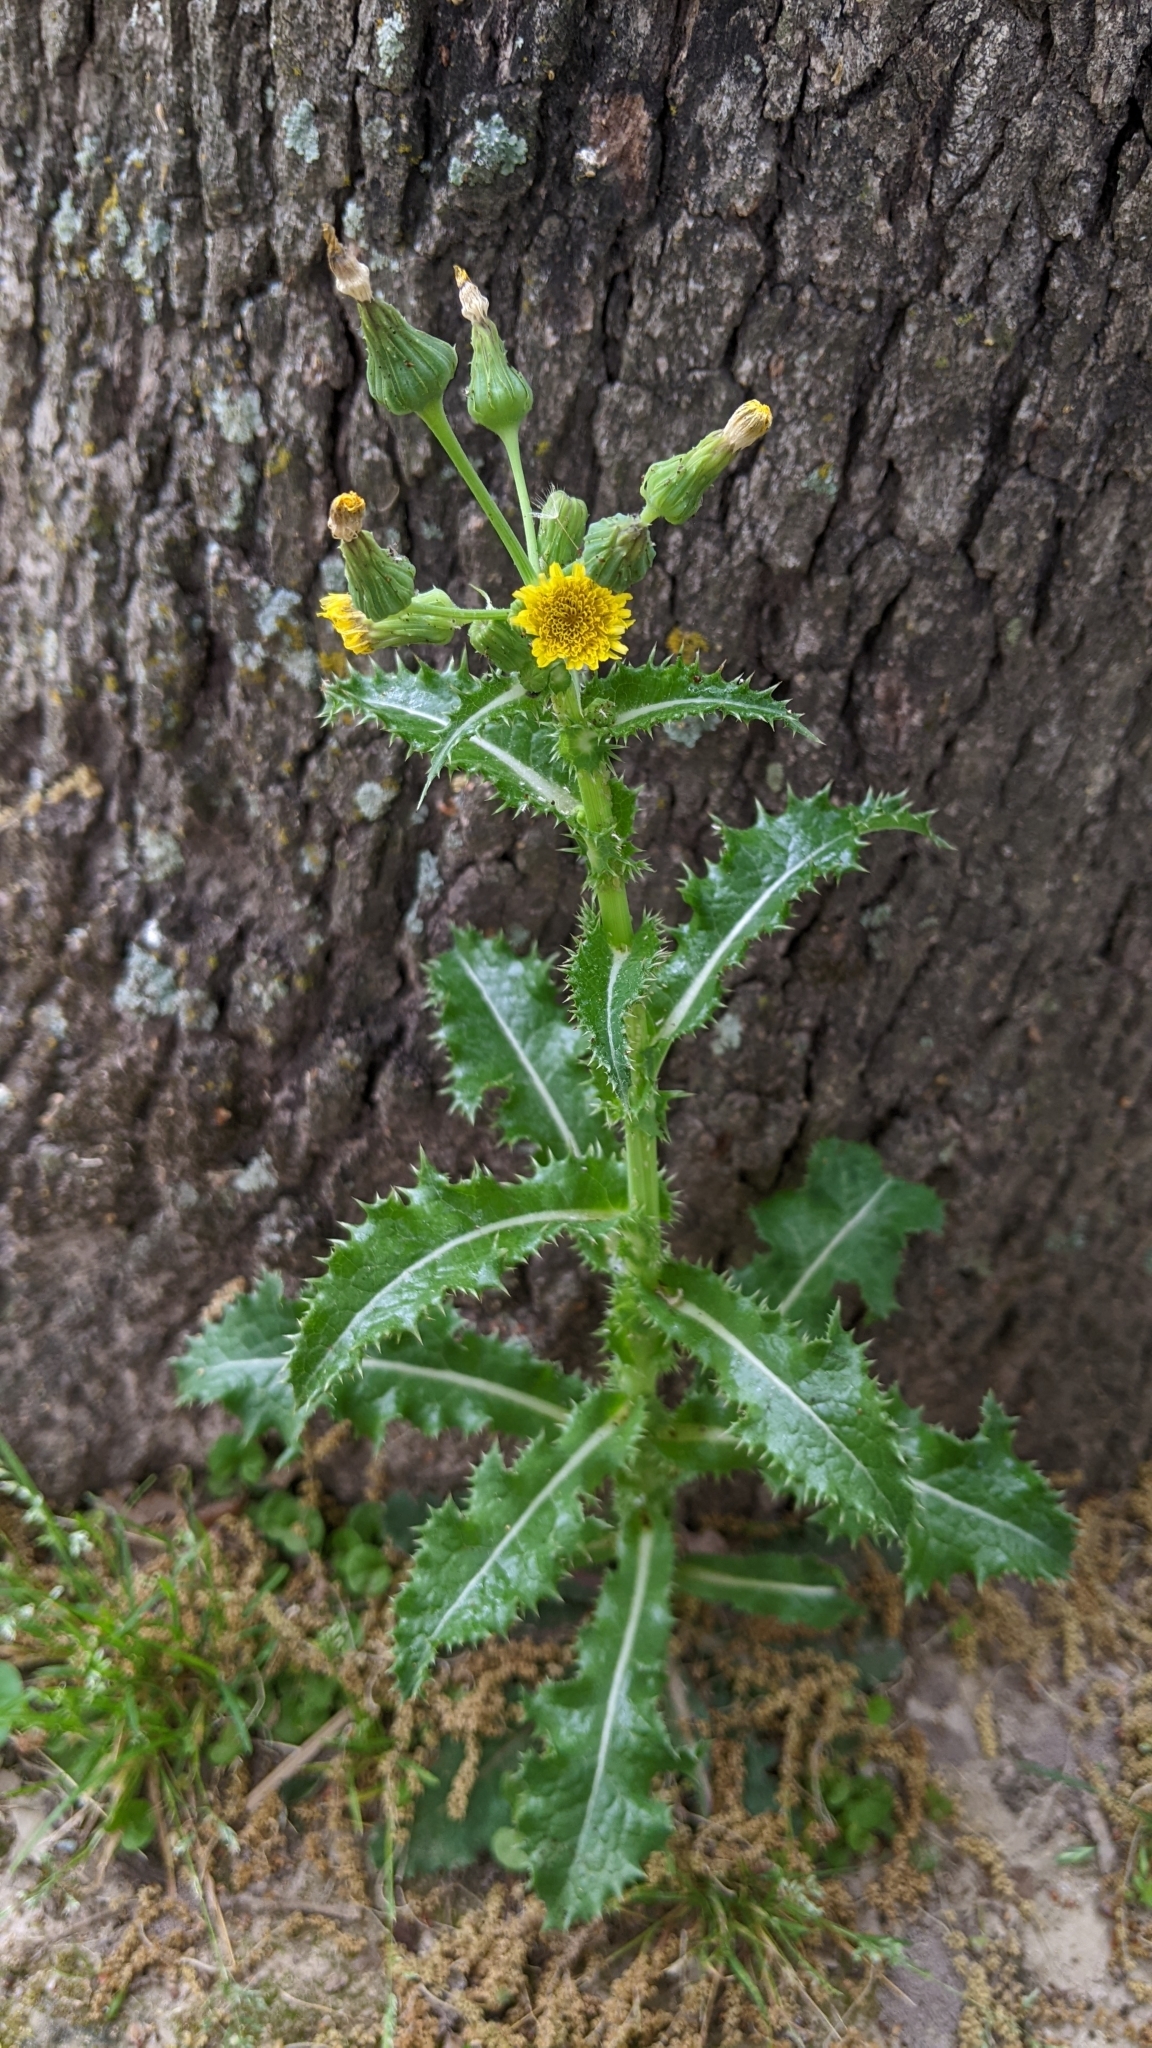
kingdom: Plantae
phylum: Tracheophyta
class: Magnoliopsida
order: Asterales
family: Asteraceae
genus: Sonchus
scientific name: Sonchus asper
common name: Prickly sow-thistle
